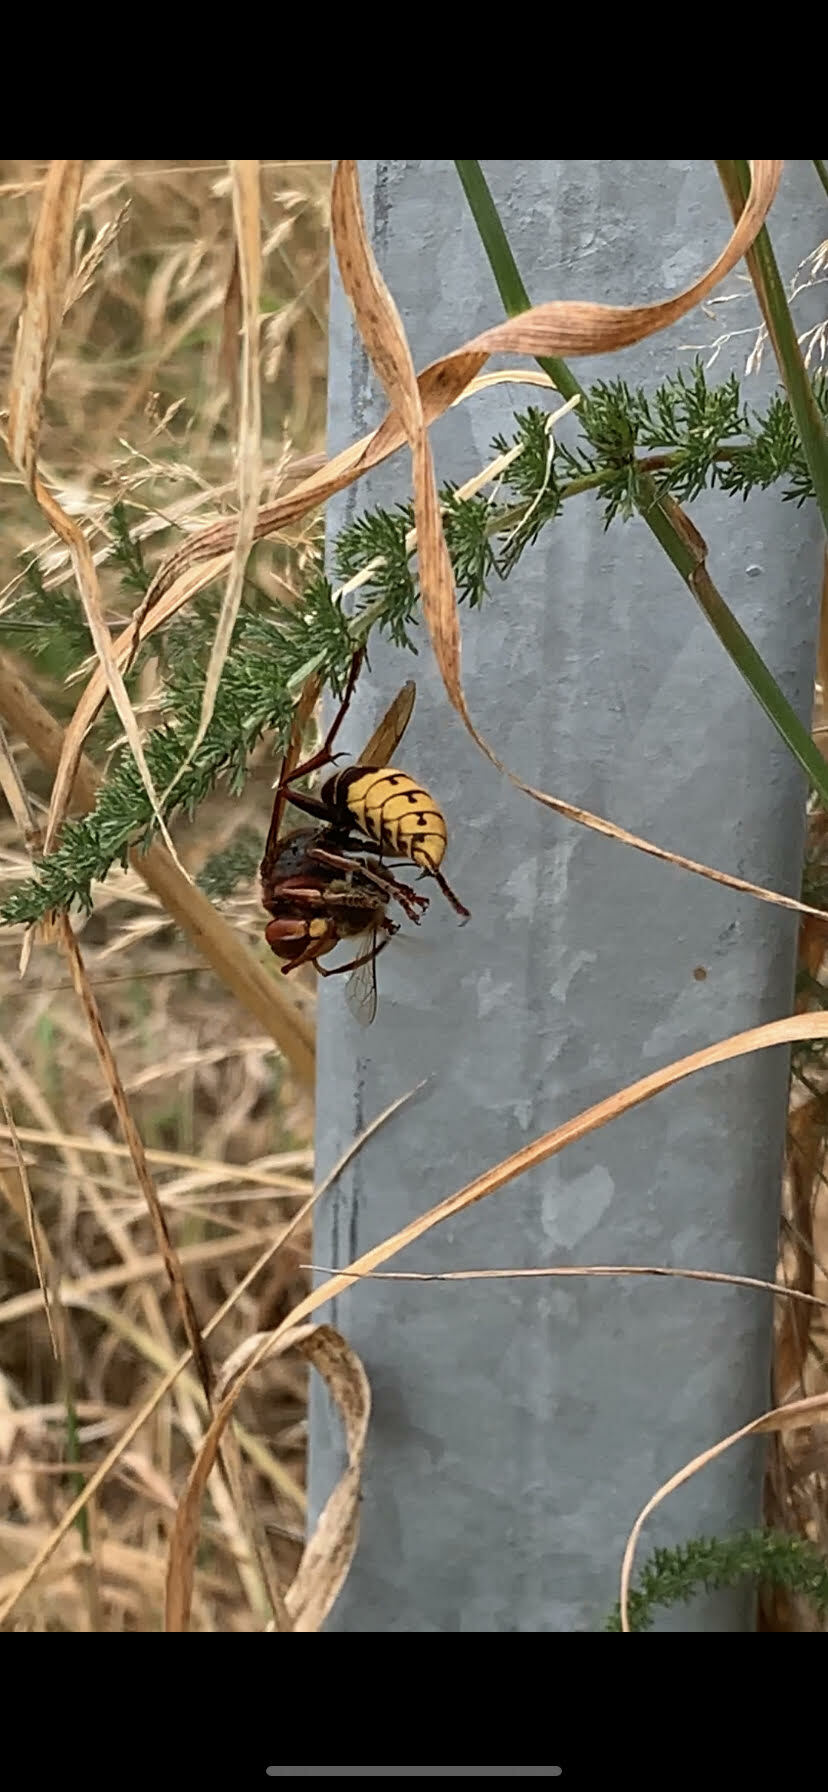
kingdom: Animalia
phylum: Arthropoda
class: Insecta
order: Hymenoptera
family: Vespidae
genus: Vespa
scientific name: Vespa crabro
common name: Hornet
